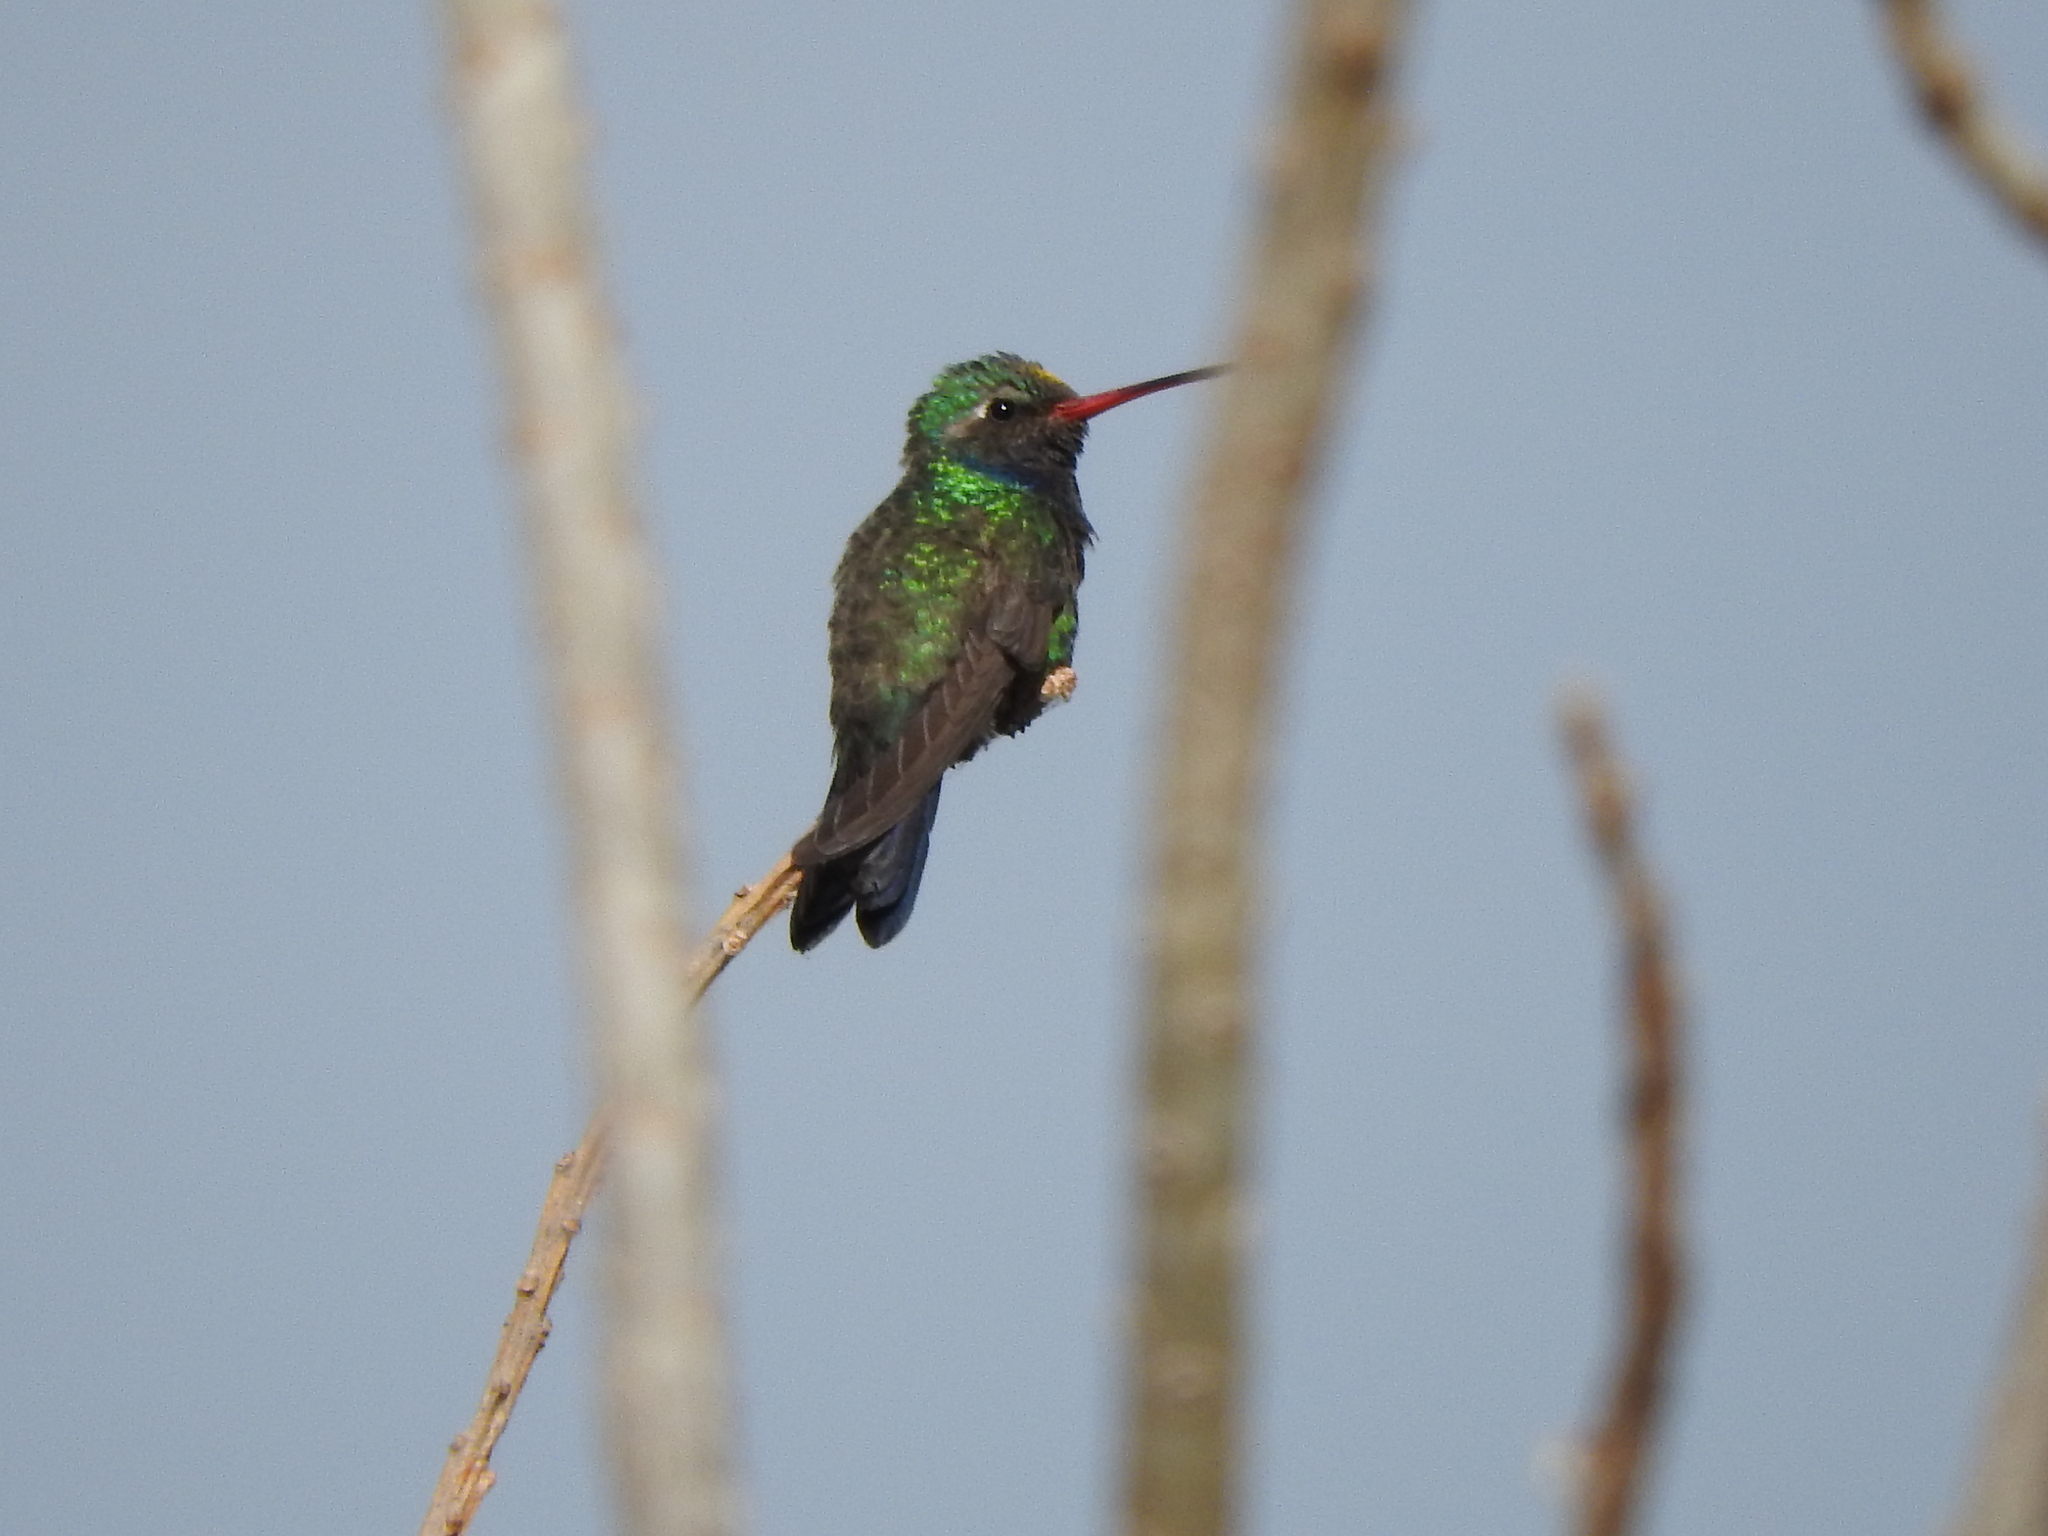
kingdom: Animalia
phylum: Chordata
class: Aves
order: Apodiformes
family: Trochilidae
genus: Cynanthus
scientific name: Cynanthus latirostris
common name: Broad-billed hummingbird
